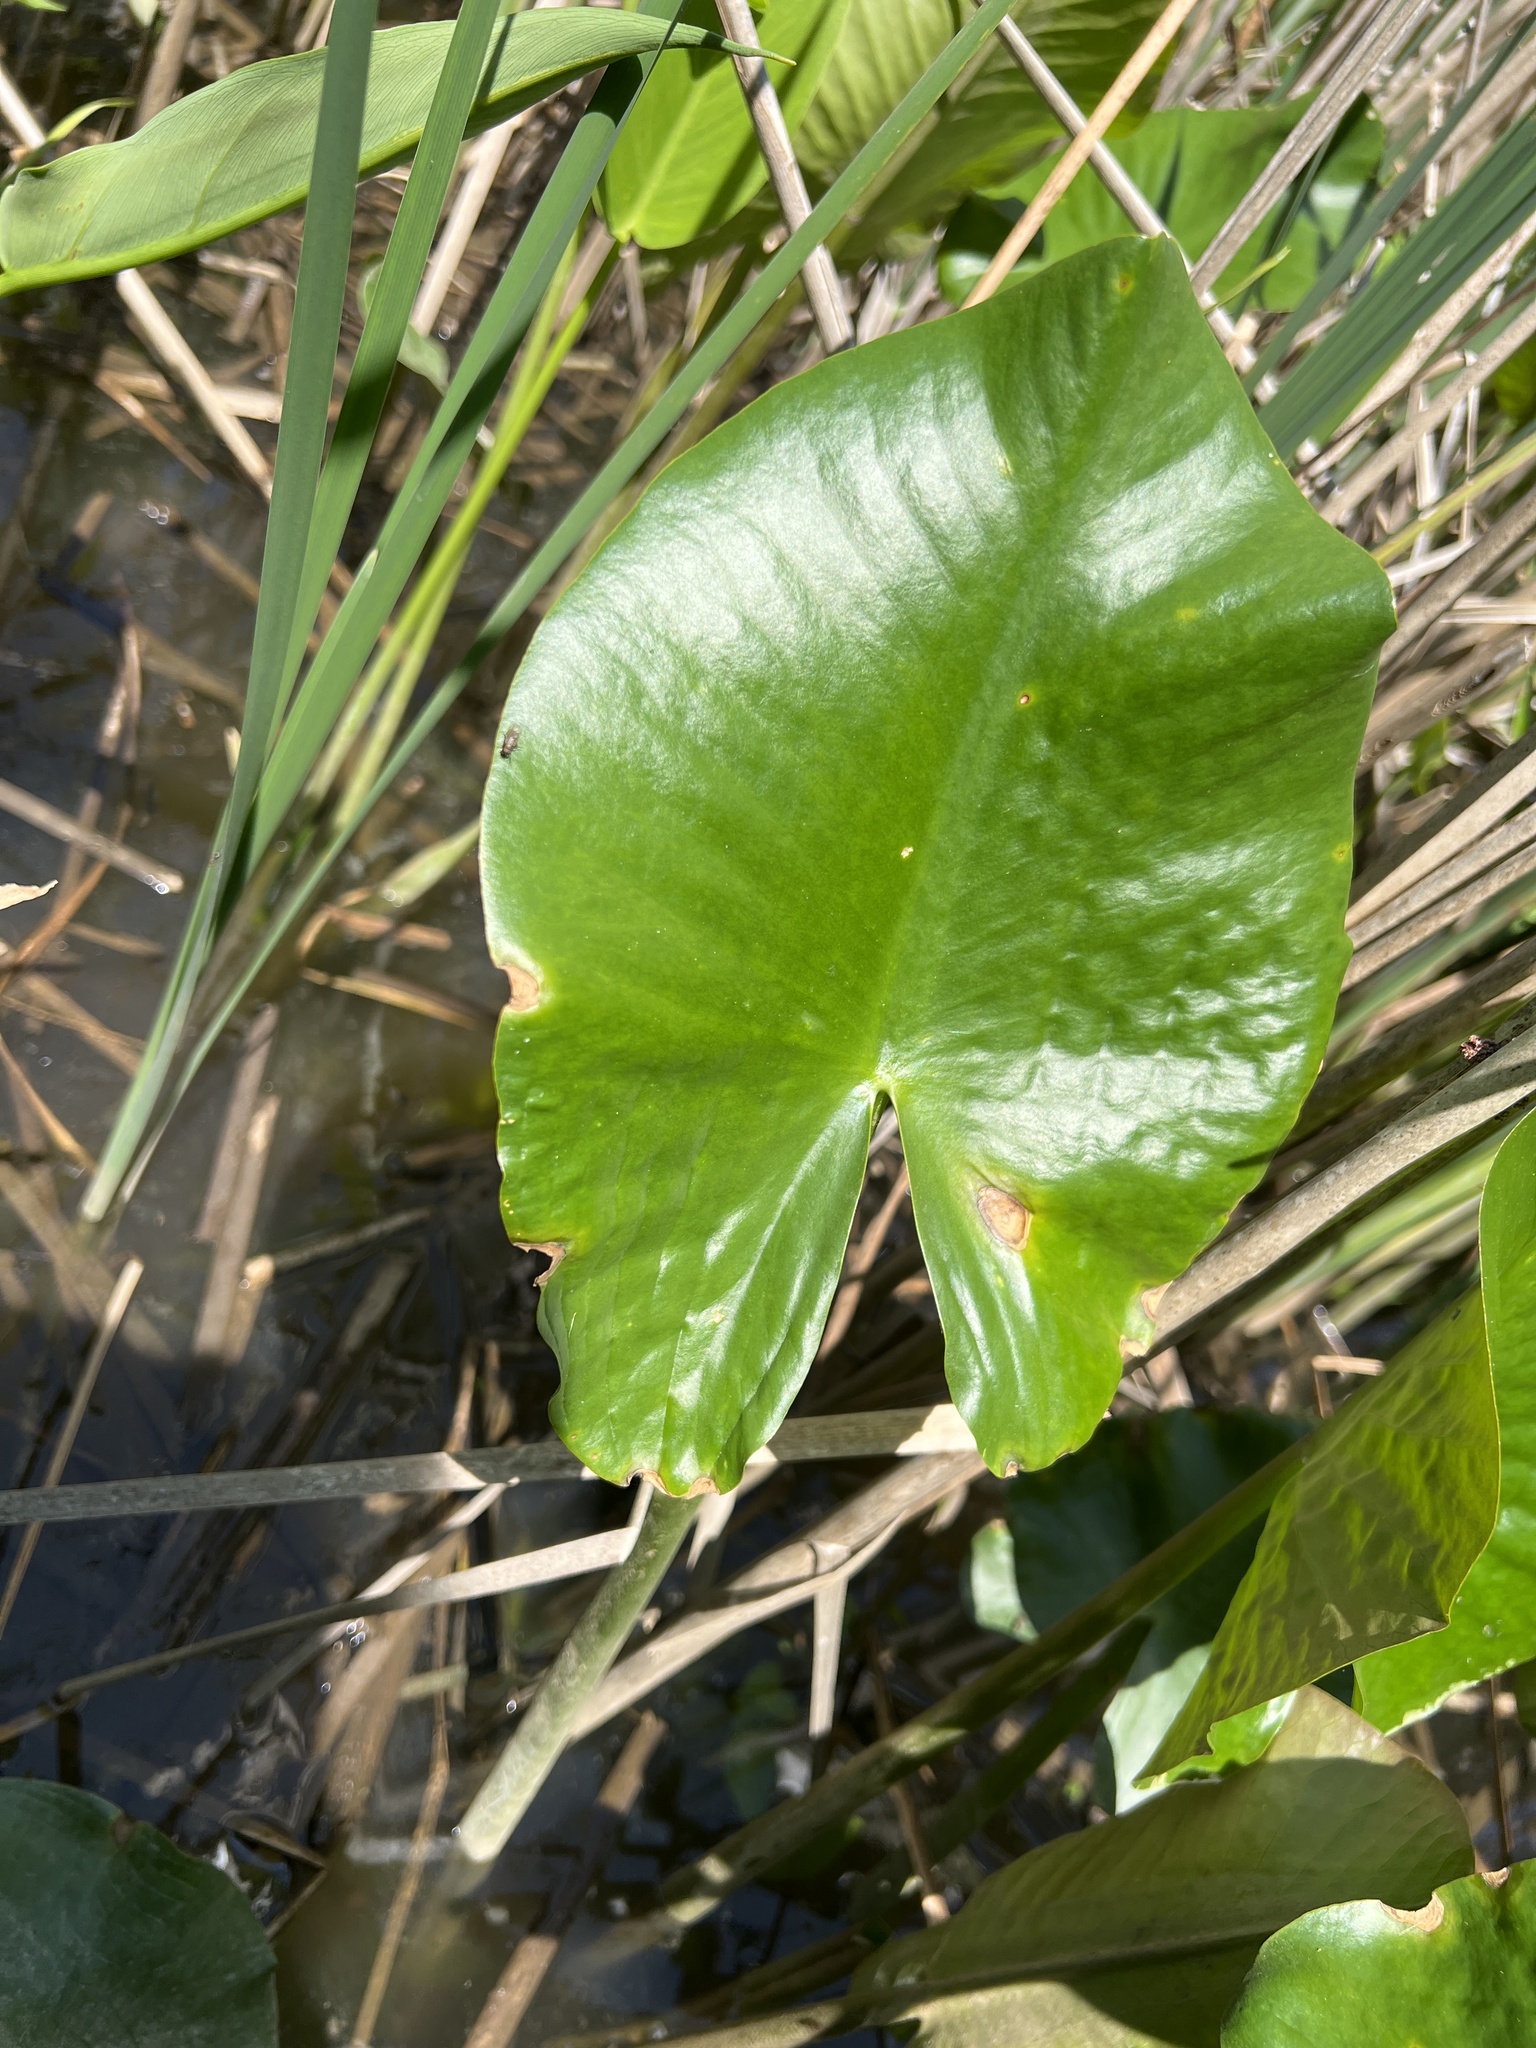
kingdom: Plantae
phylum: Tracheophyta
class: Magnoliopsida
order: Nymphaeales
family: Nymphaeaceae
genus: Nuphar
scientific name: Nuphar advena
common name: Spatter-dock
